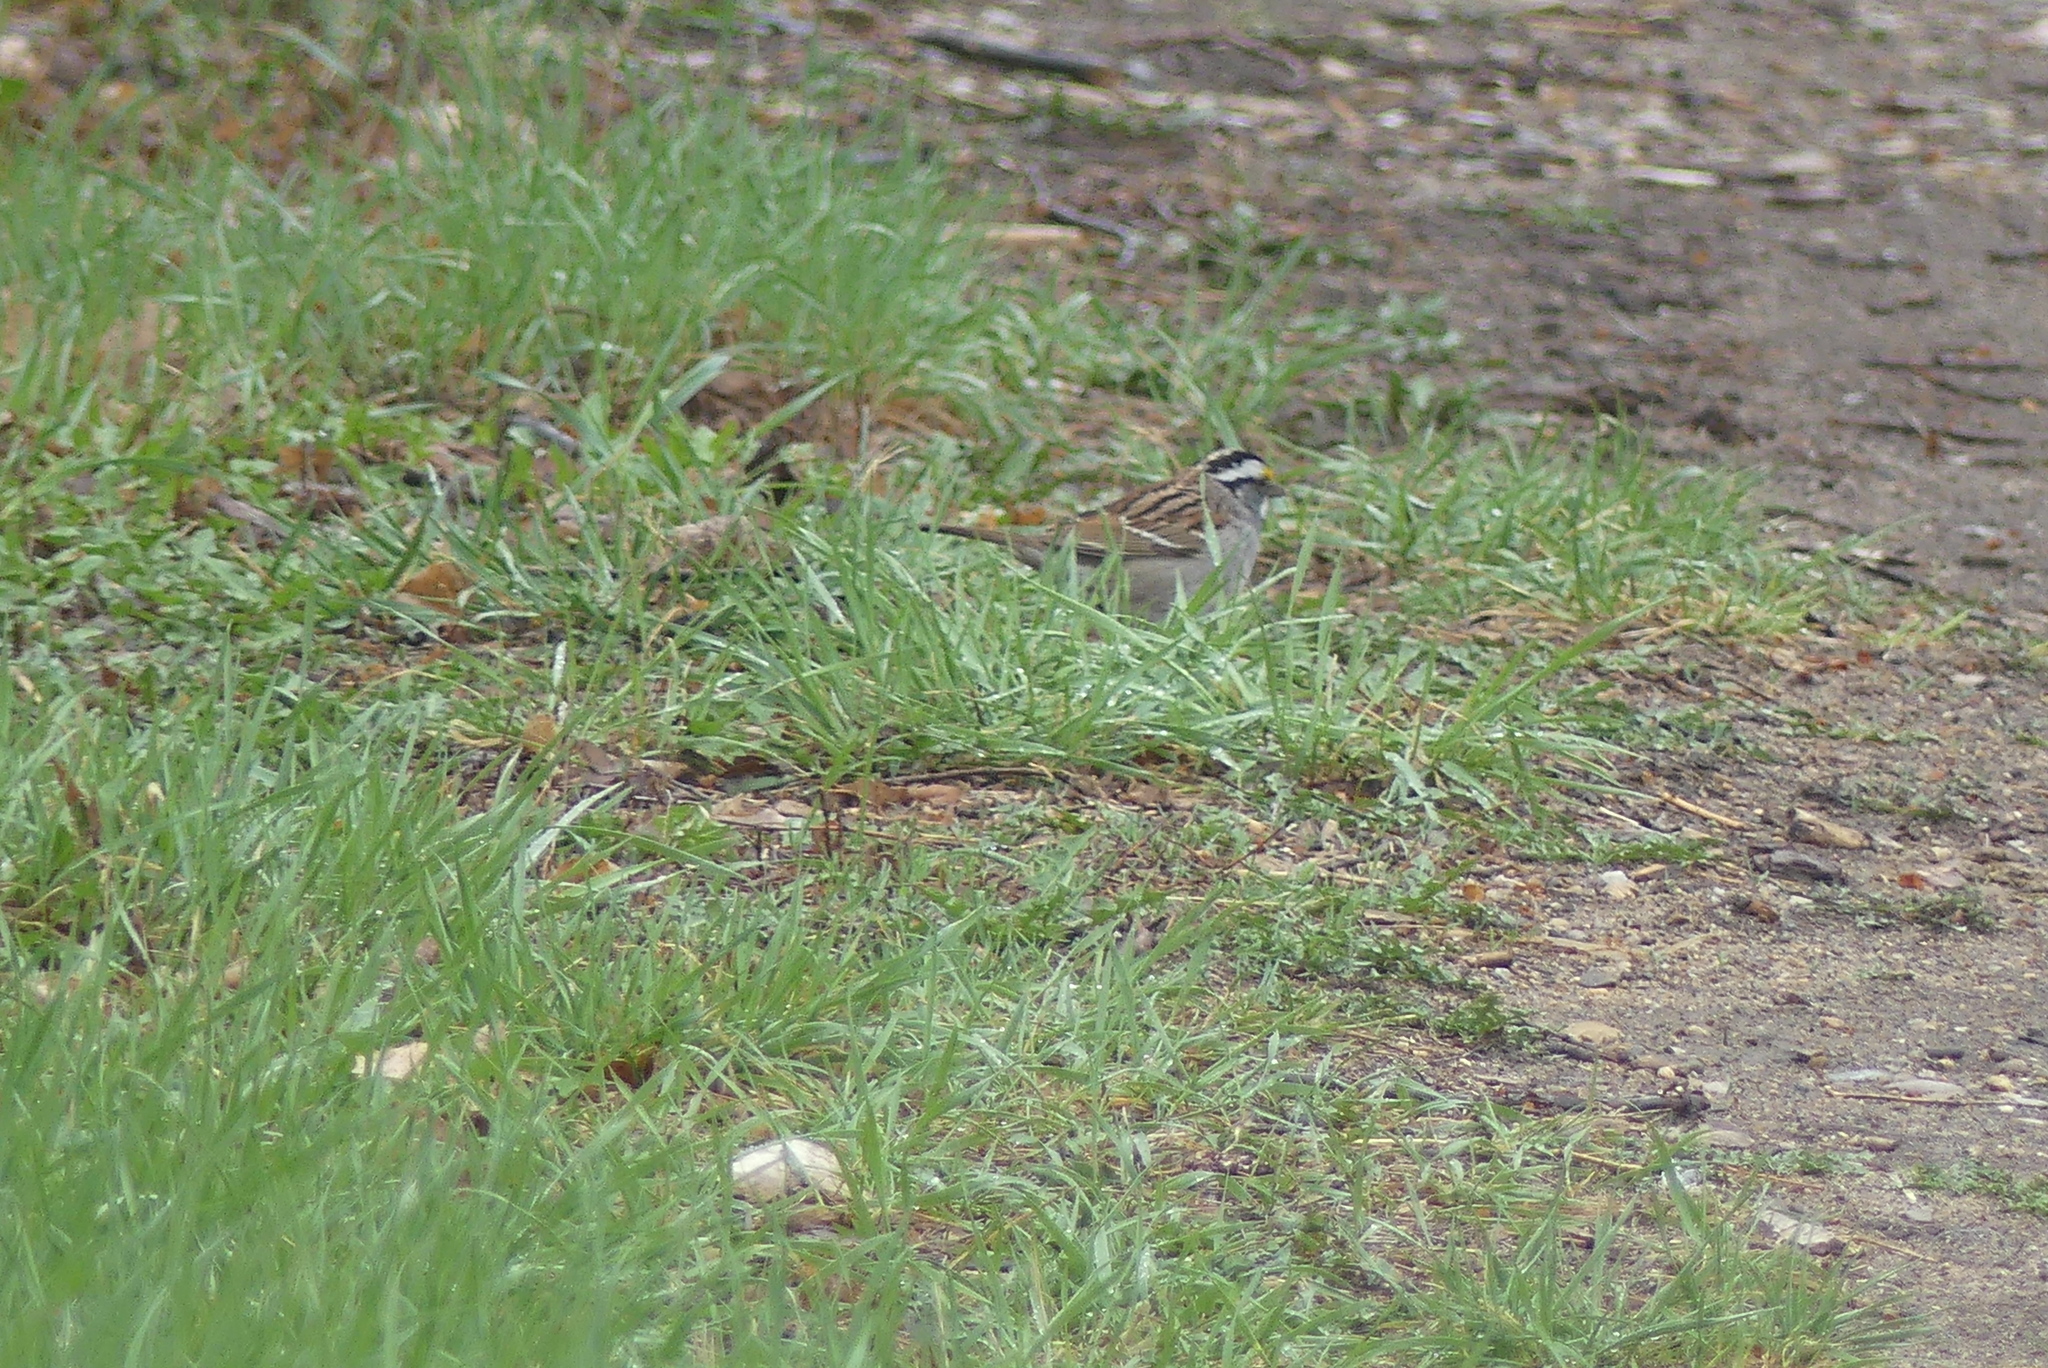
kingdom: Animalia
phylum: Chordata
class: Aves
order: Passeriformes
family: Passerellidae
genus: Zonotrichia
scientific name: Zonotrichia albicollis
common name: White-throated sparrow
